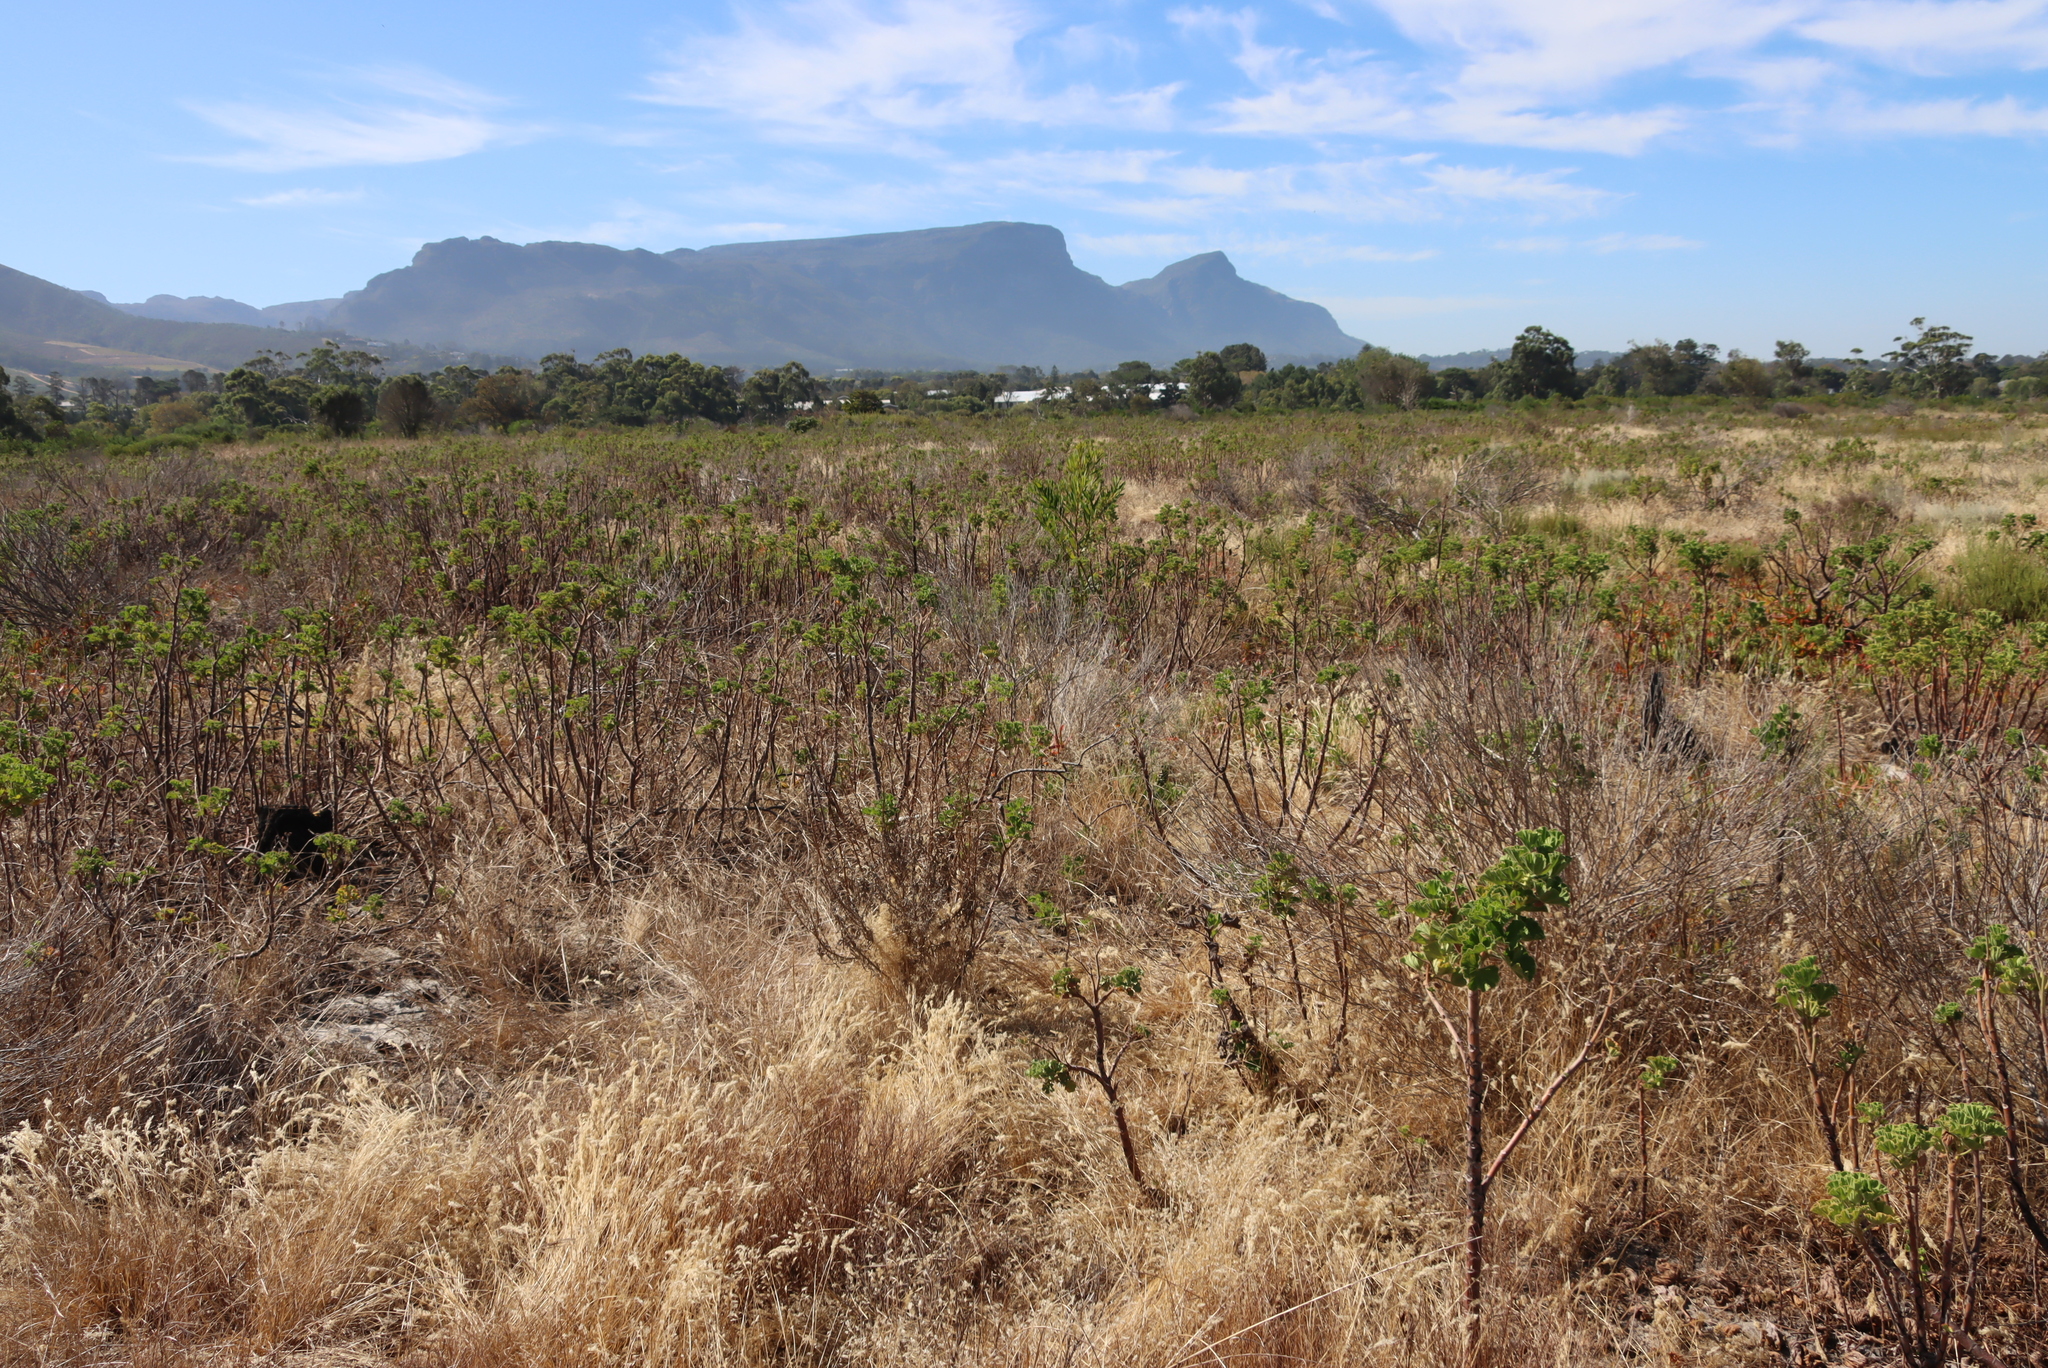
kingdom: Plantae
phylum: Tracheophyta
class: Magnoliopsida
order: Geraniales
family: Geraniaceae
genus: Pelargonium
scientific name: Pelargonium cucullatum
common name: Tree pelargonium
